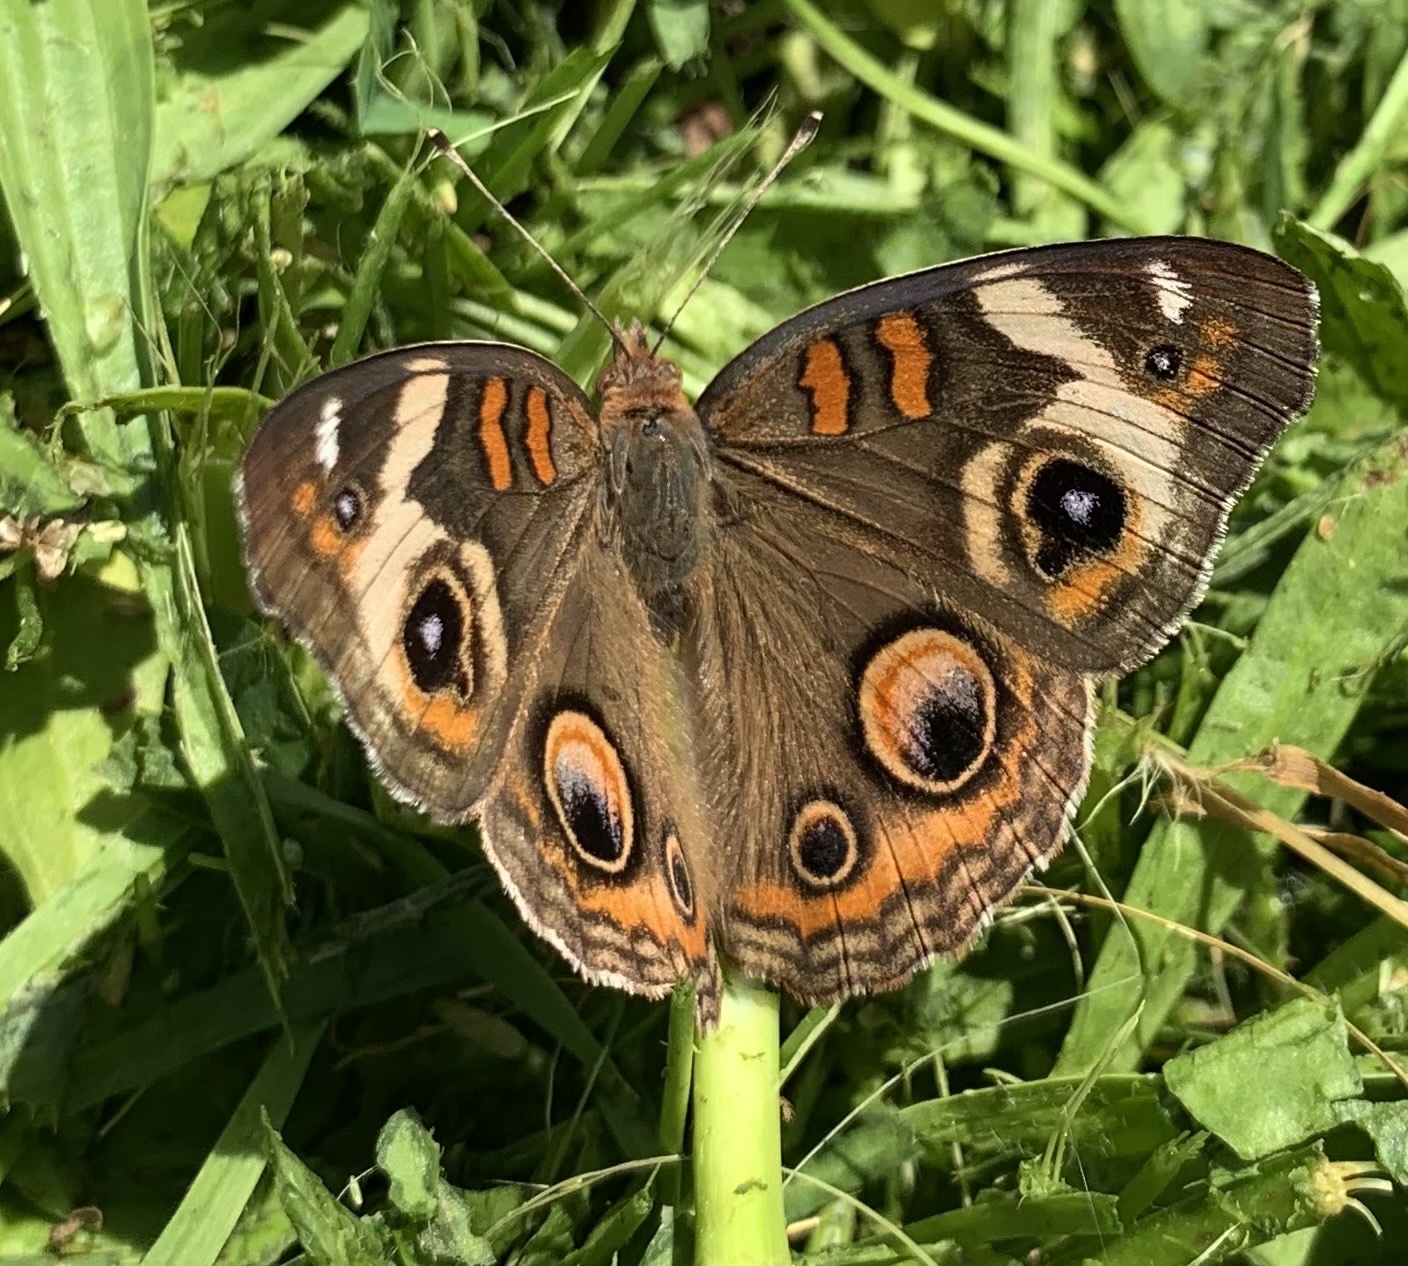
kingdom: Animalia
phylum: Arthropoda
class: Insecta
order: Lepidoptera
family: Nymphalidae
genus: Junonia
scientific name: Junonia coenia
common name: Common buckeye
